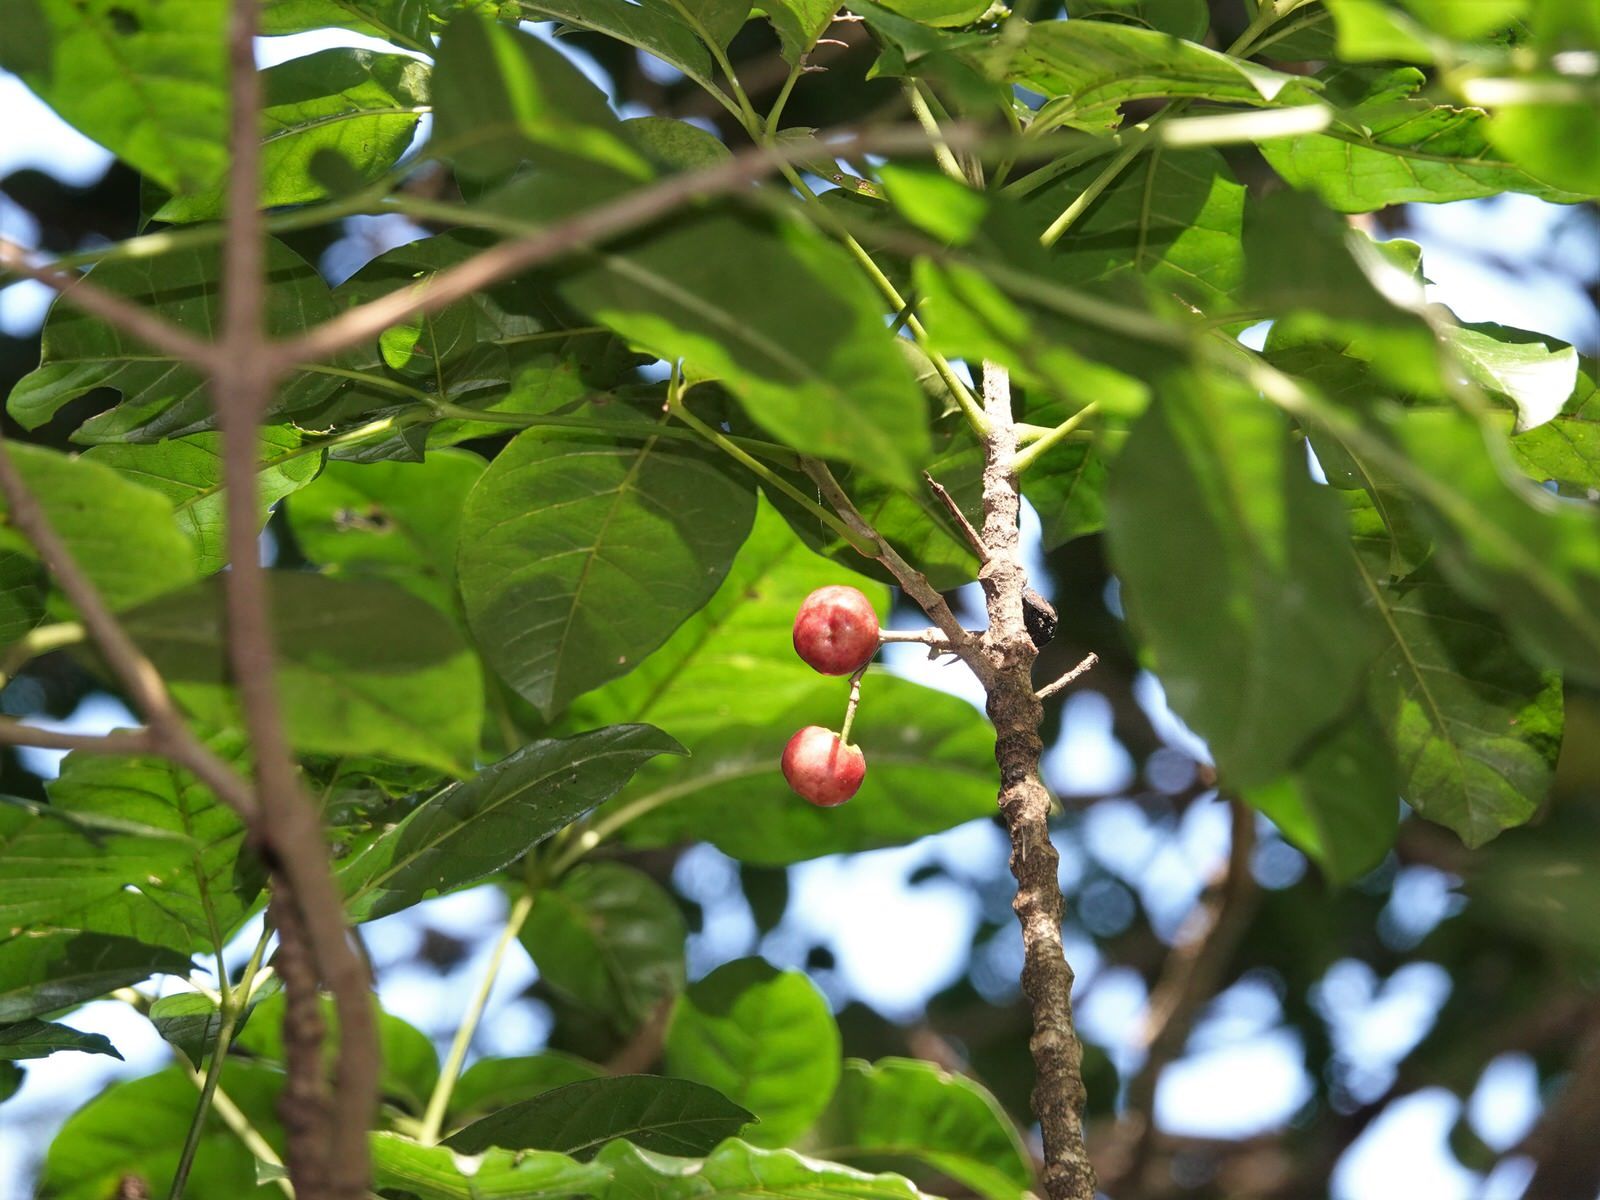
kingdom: Plantae
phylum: Tracheophyta
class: Magnoliopsida
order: Lamiales
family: Lamiaceae
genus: Vitex
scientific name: Vitex lucens
